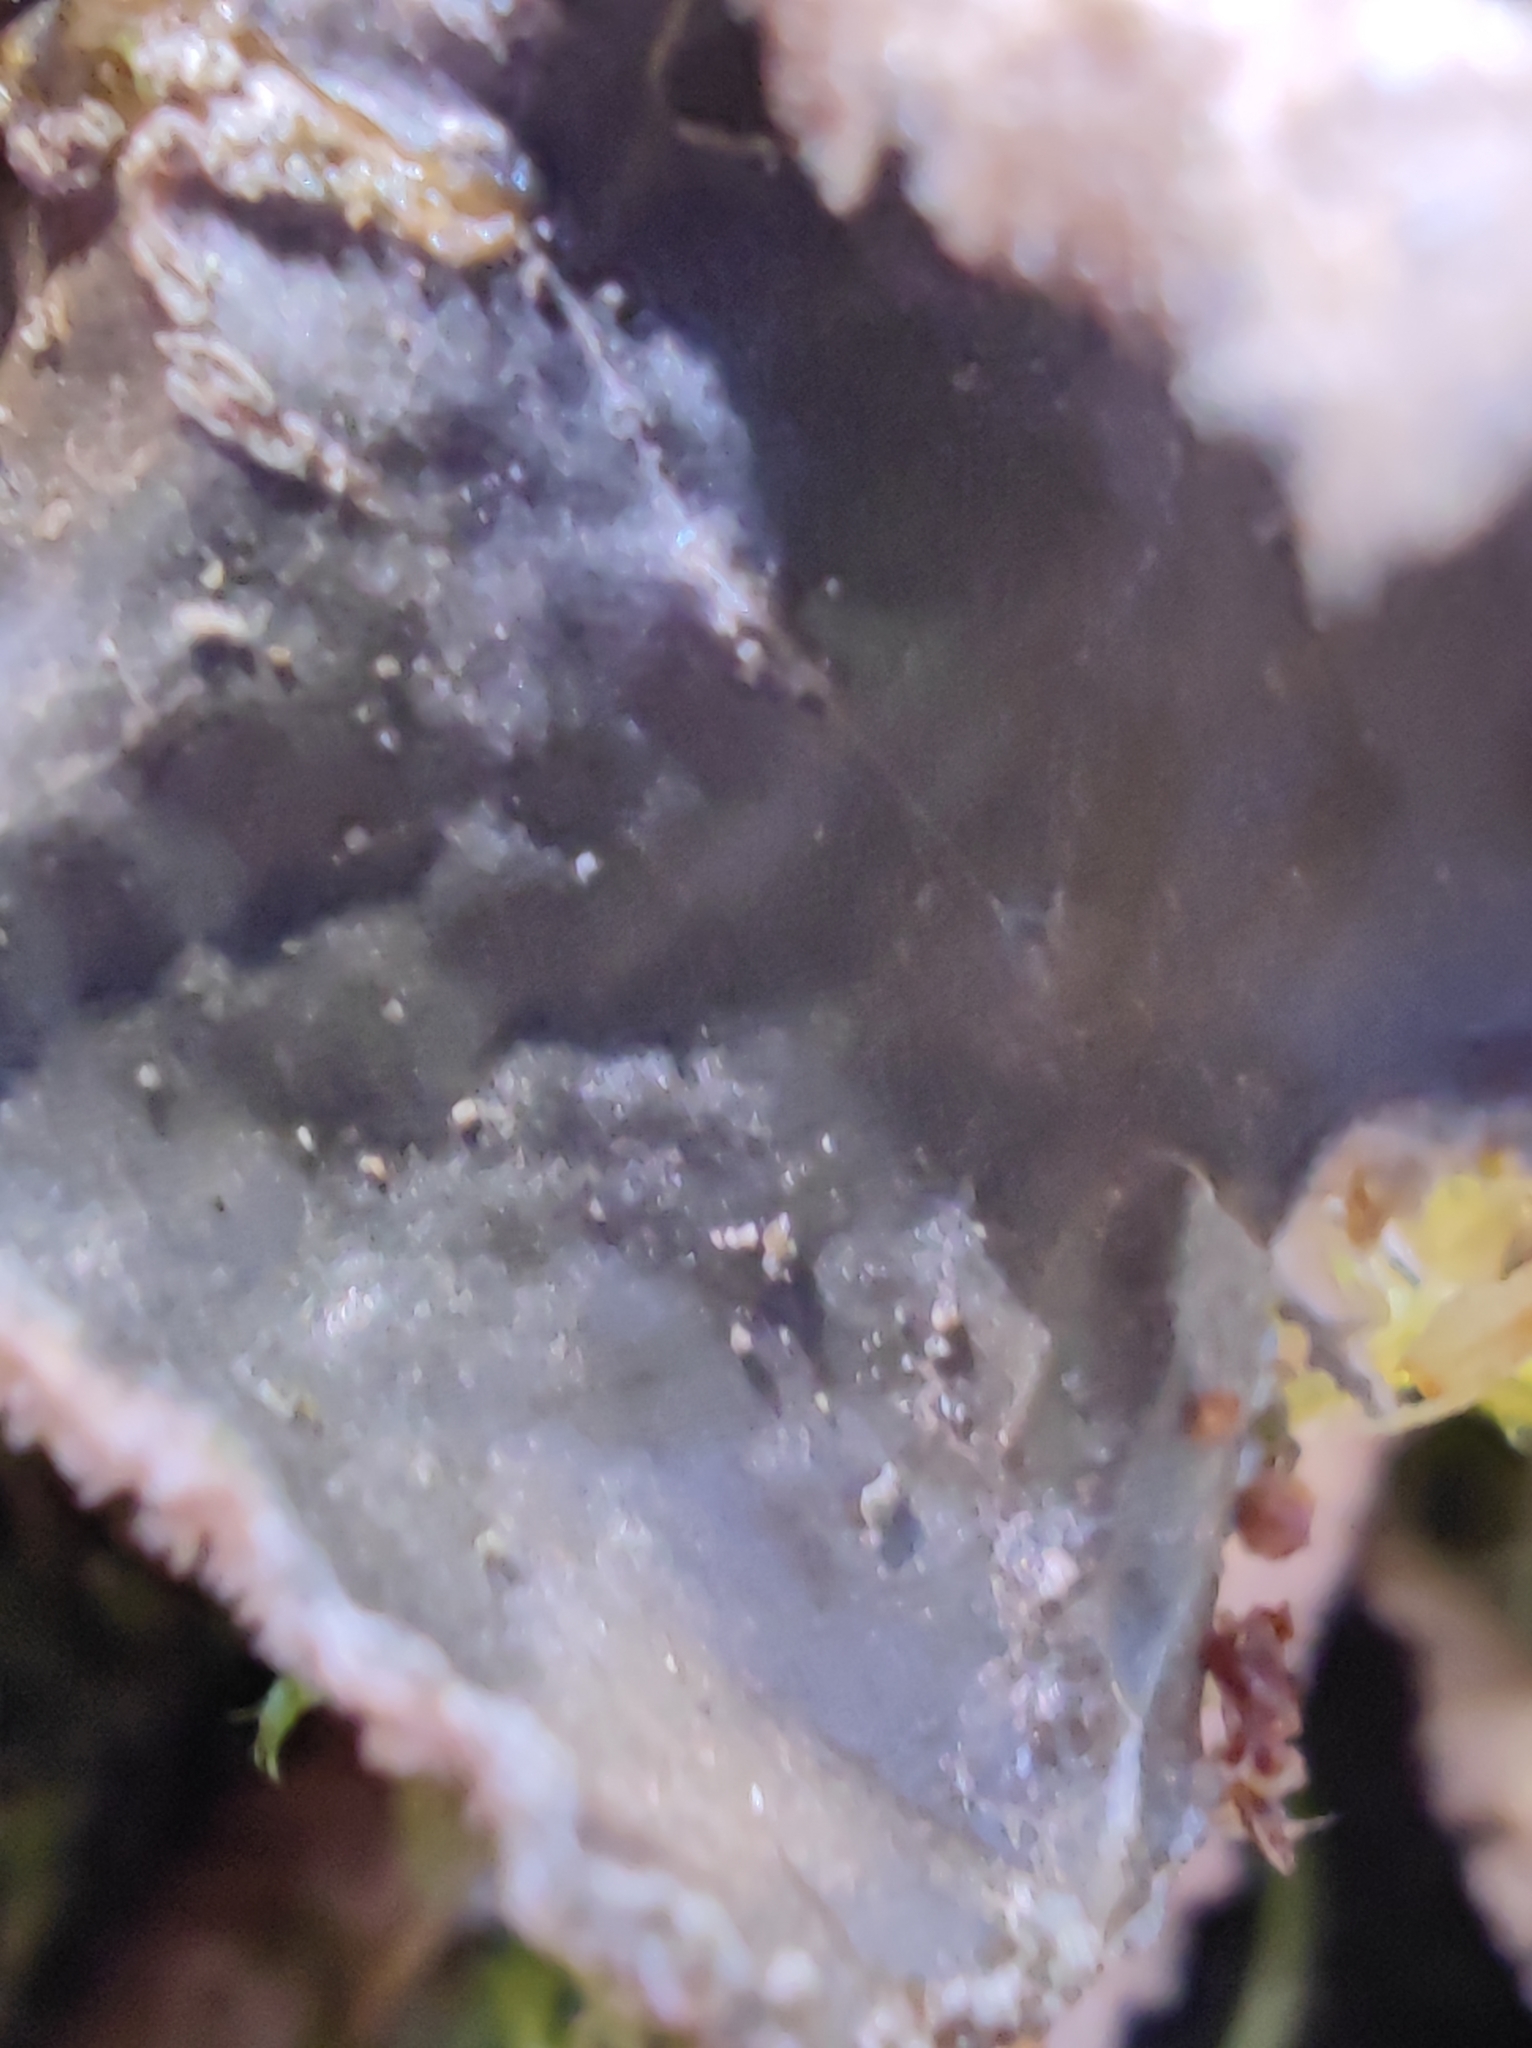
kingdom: Fungi
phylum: Ascomycota
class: Lecanoromycetes
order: Peltigerales
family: Lobariaceae
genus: Lobarina
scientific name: Lobarina scrobiculata
